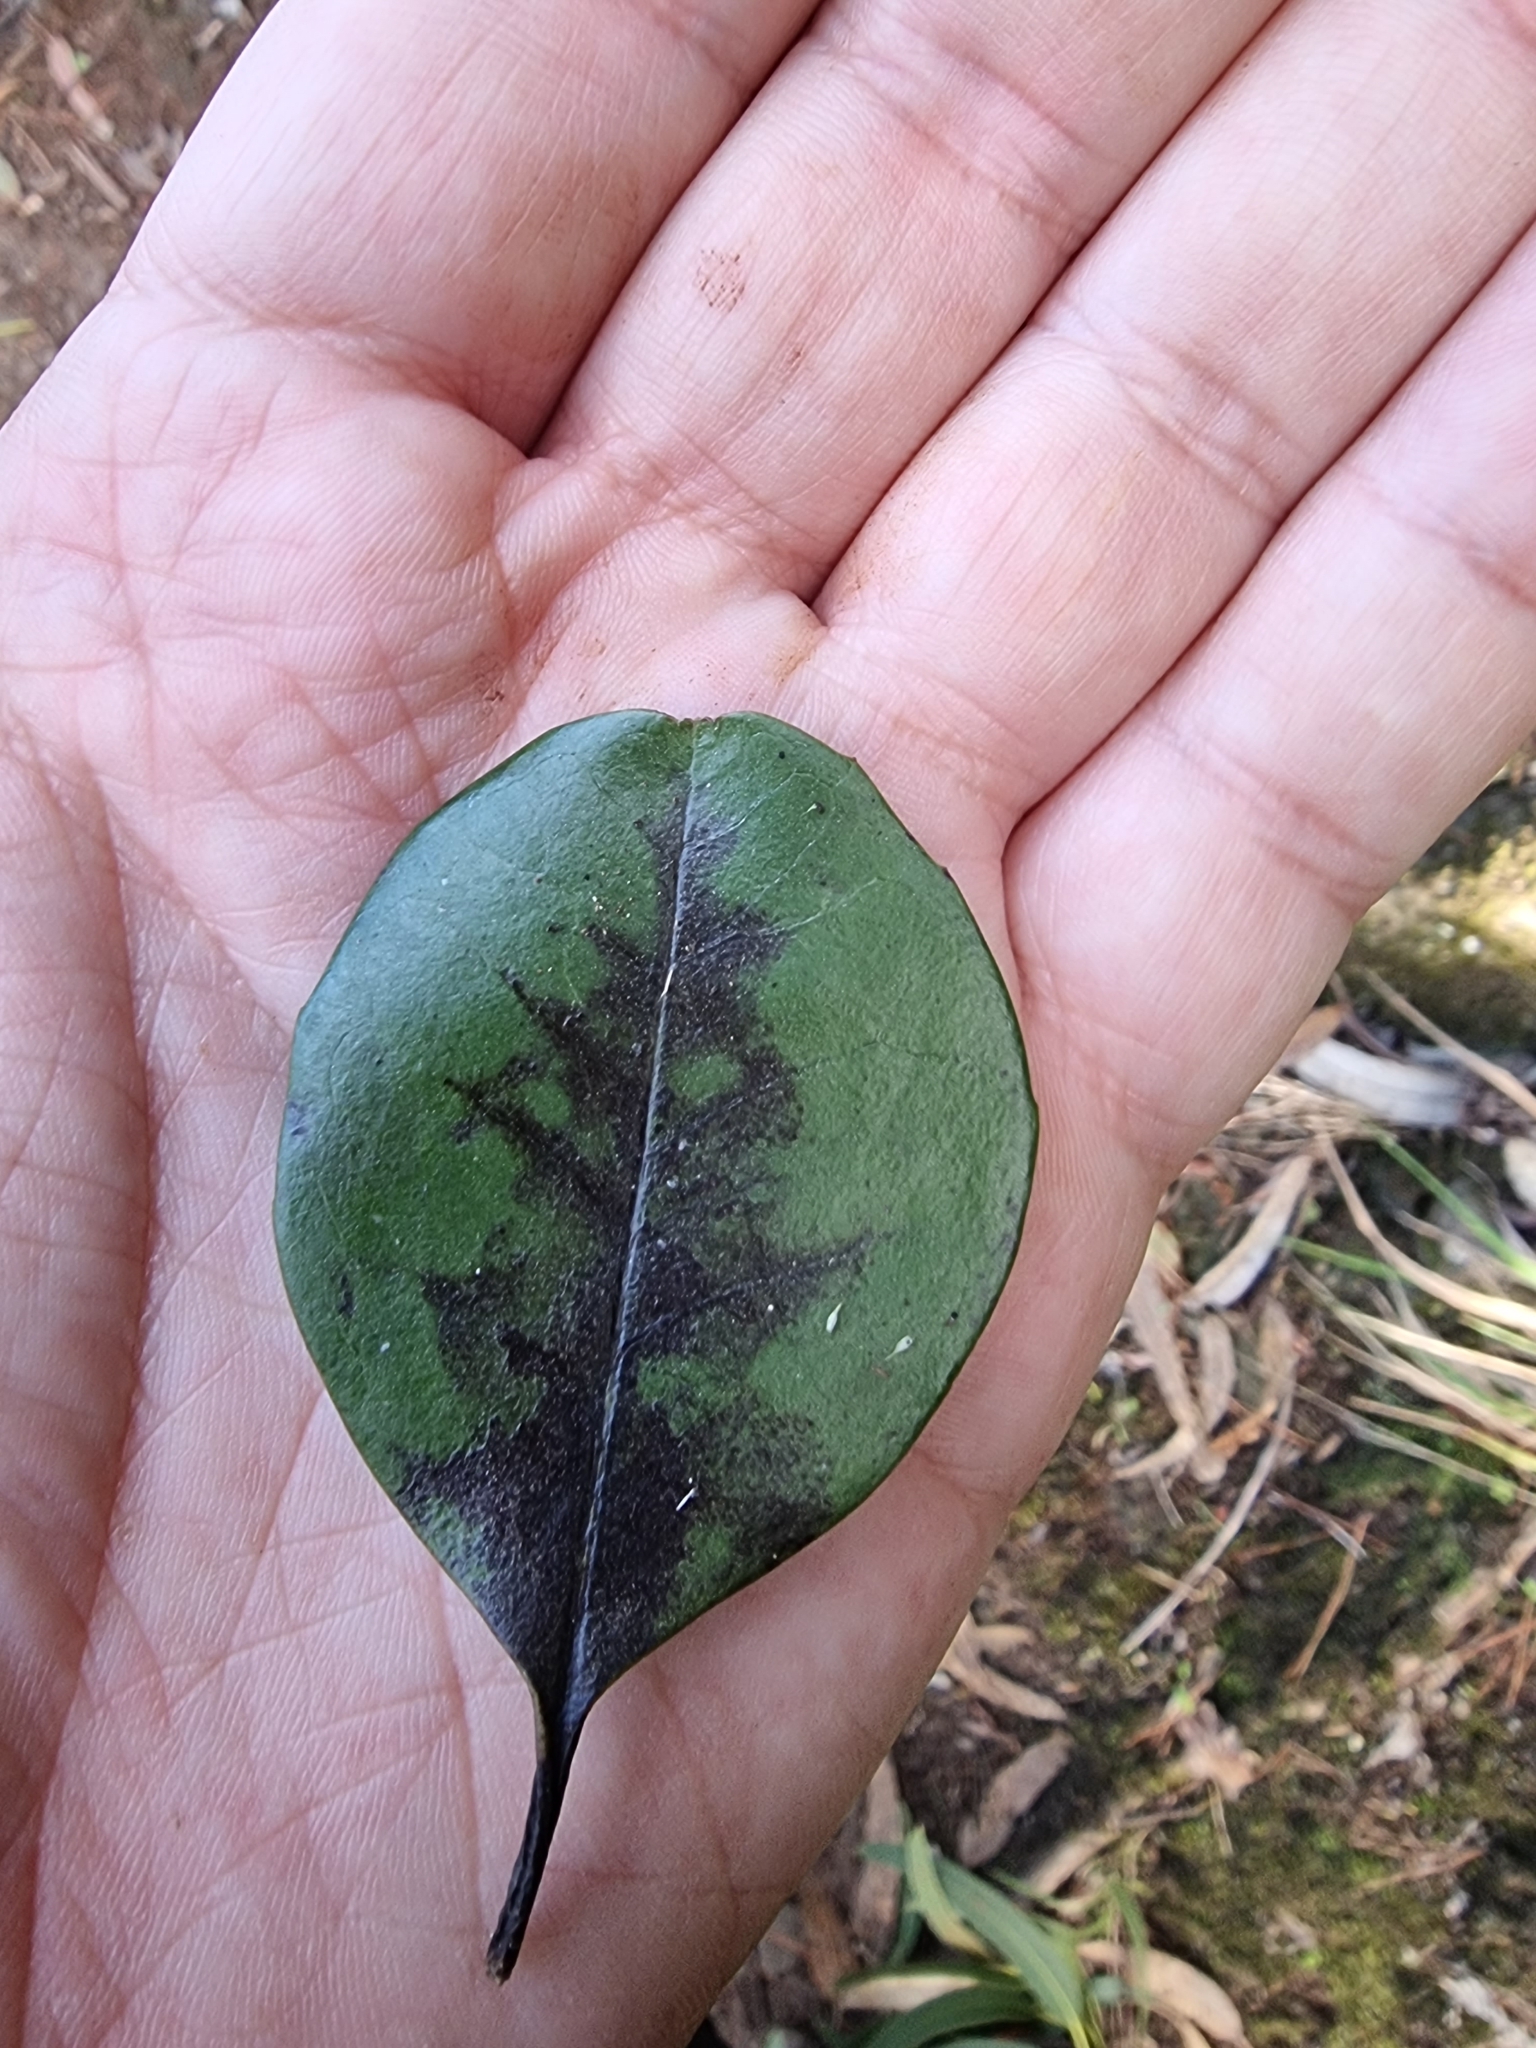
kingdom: Plantae
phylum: Tracheophyta
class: Magnoliopsida
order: Aquifoliales
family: Aquifoliaceae
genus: Ilex
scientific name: Ilex canariensis
